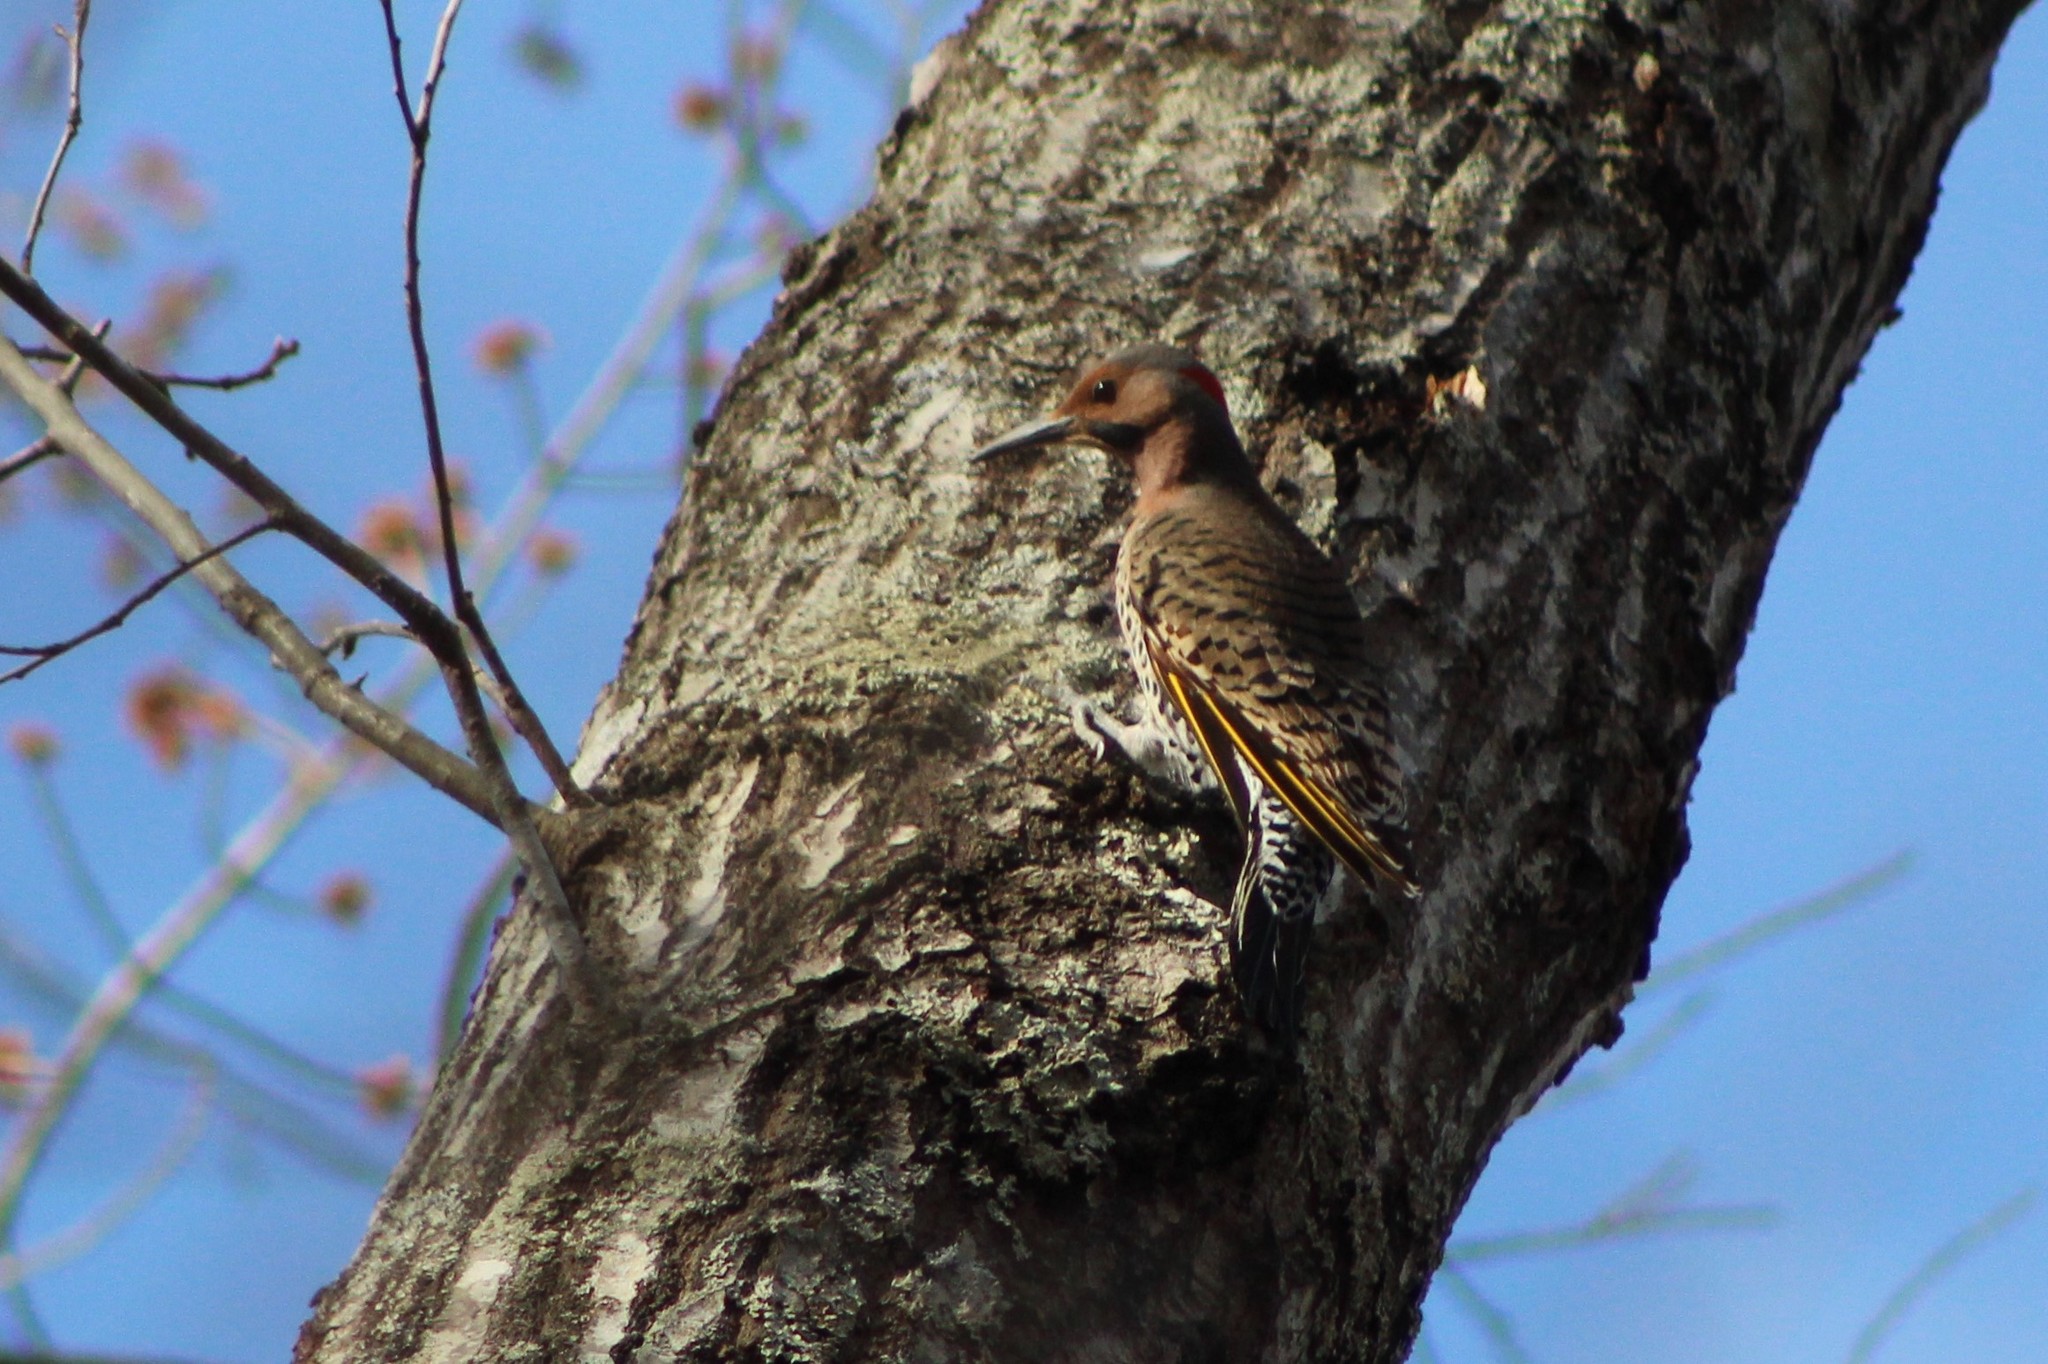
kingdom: Animalia
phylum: Chordata
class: Aves
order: Piciformes
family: Picidae
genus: Colaptes
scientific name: Colaptes auratus
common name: Northern flicker
